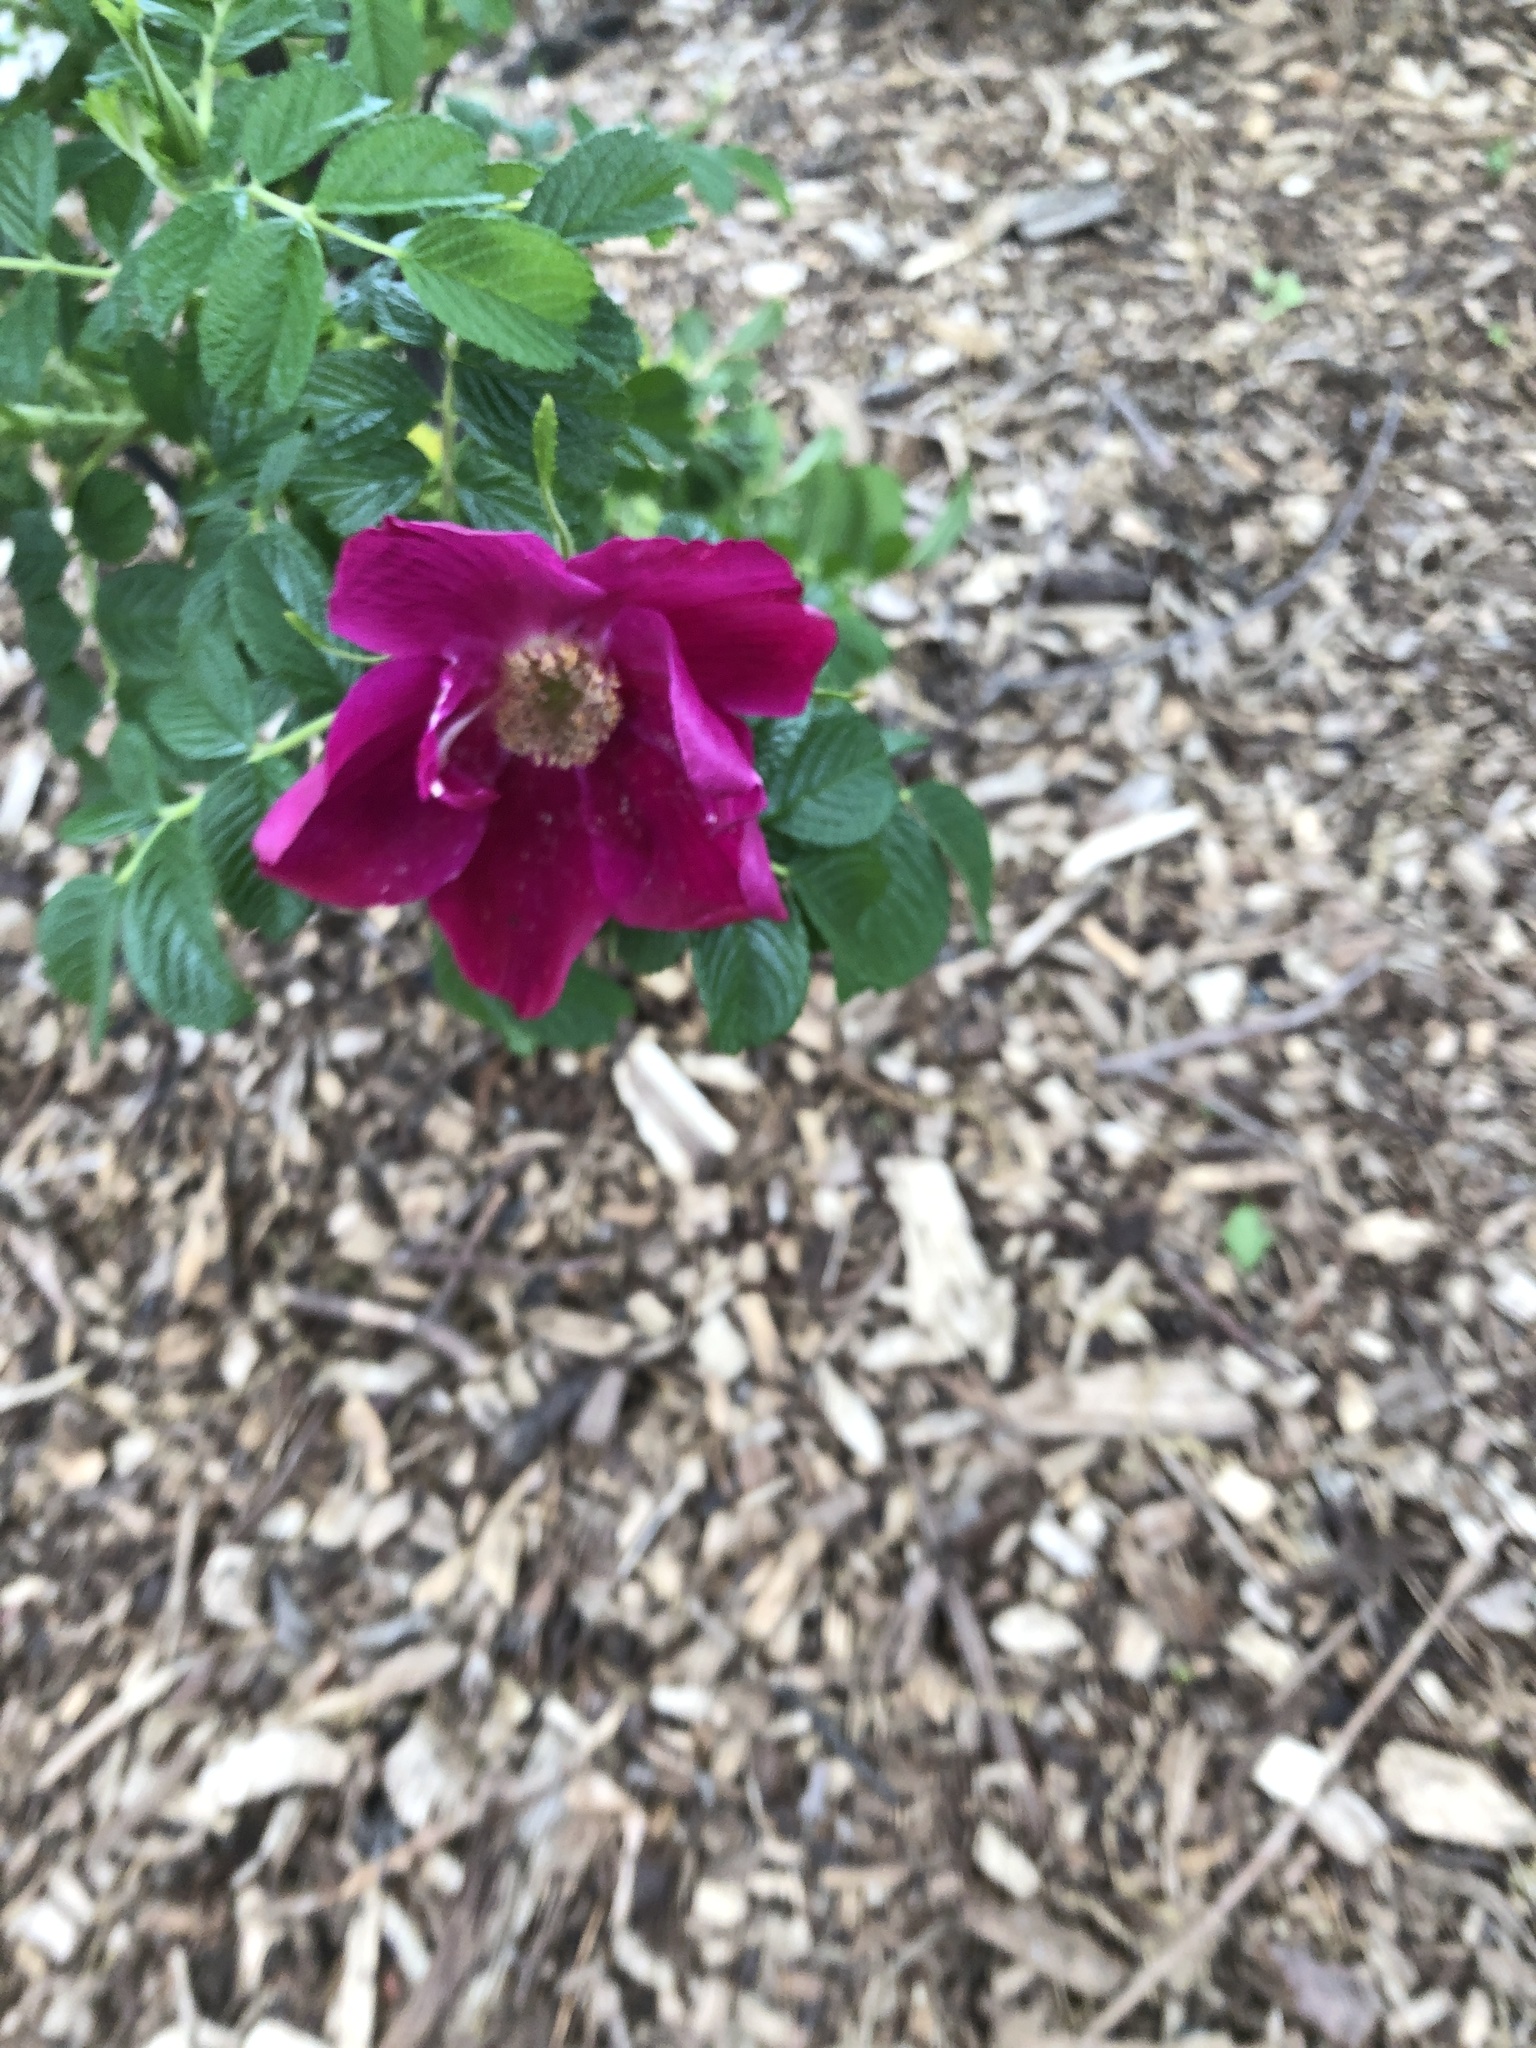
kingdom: Plantae
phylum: Tracheophyta
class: Magnoliopsida
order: Rosales
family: Rosaceae
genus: Rosa
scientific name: Rosa rugosa
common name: Japanese rose
